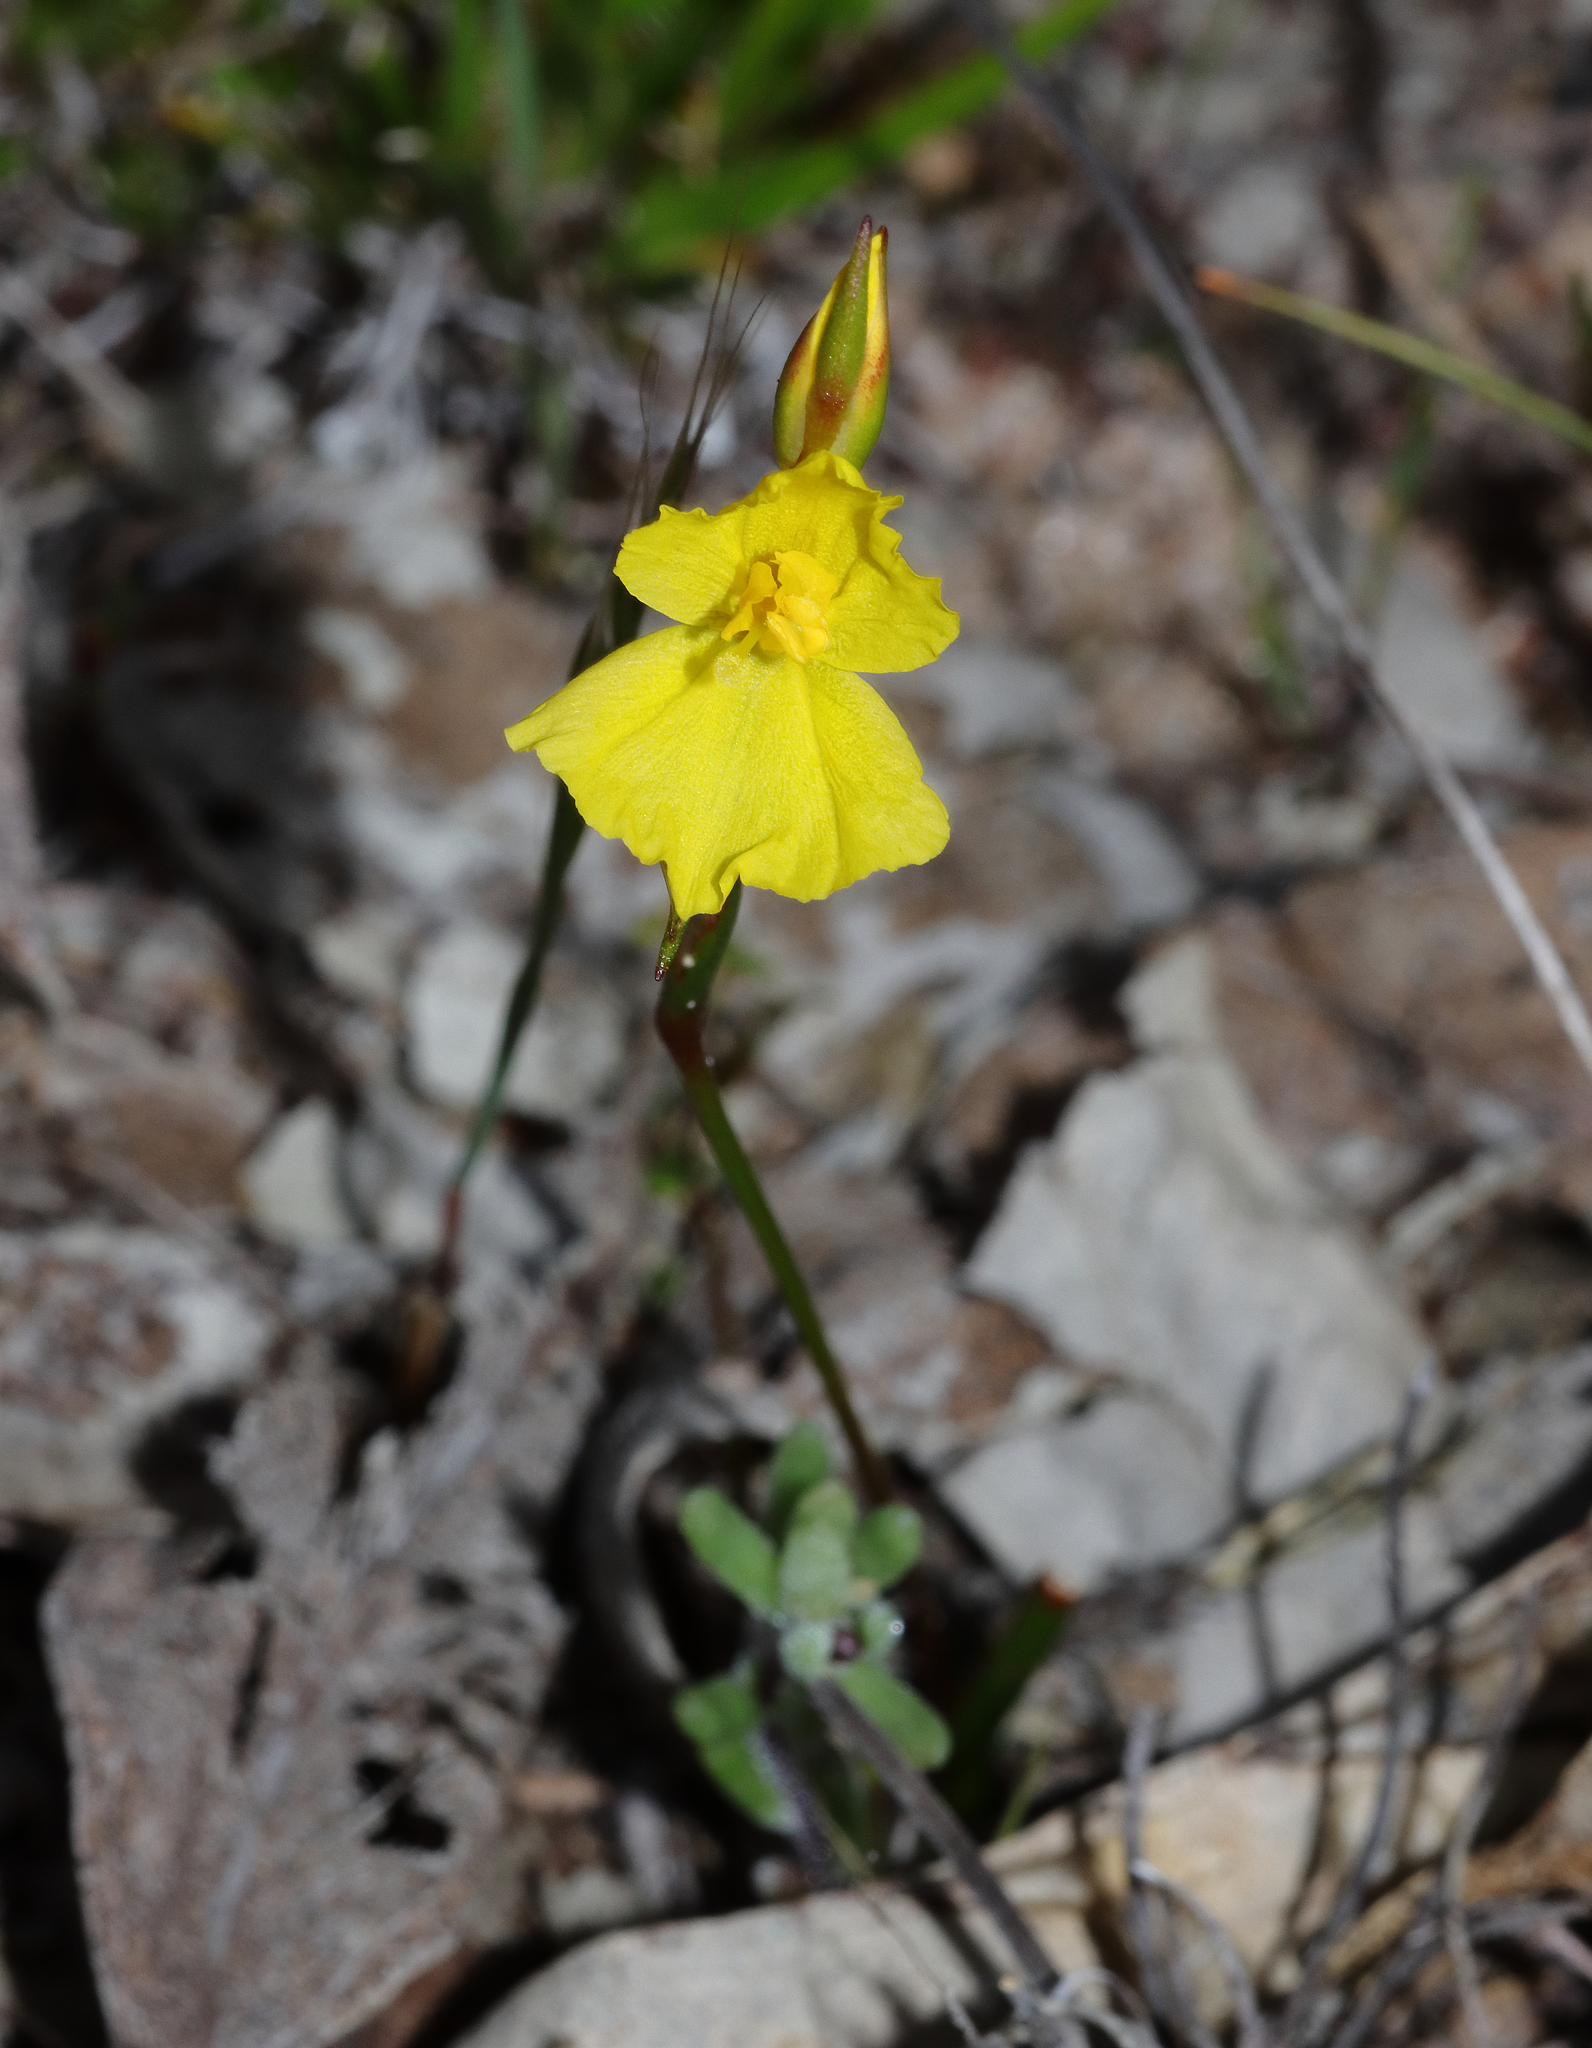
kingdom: Plantae
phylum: Tracheophyta
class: Liliopsida
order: Commelinales
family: Philydraceae
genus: Philydrella
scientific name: Philydrella pygmaea
